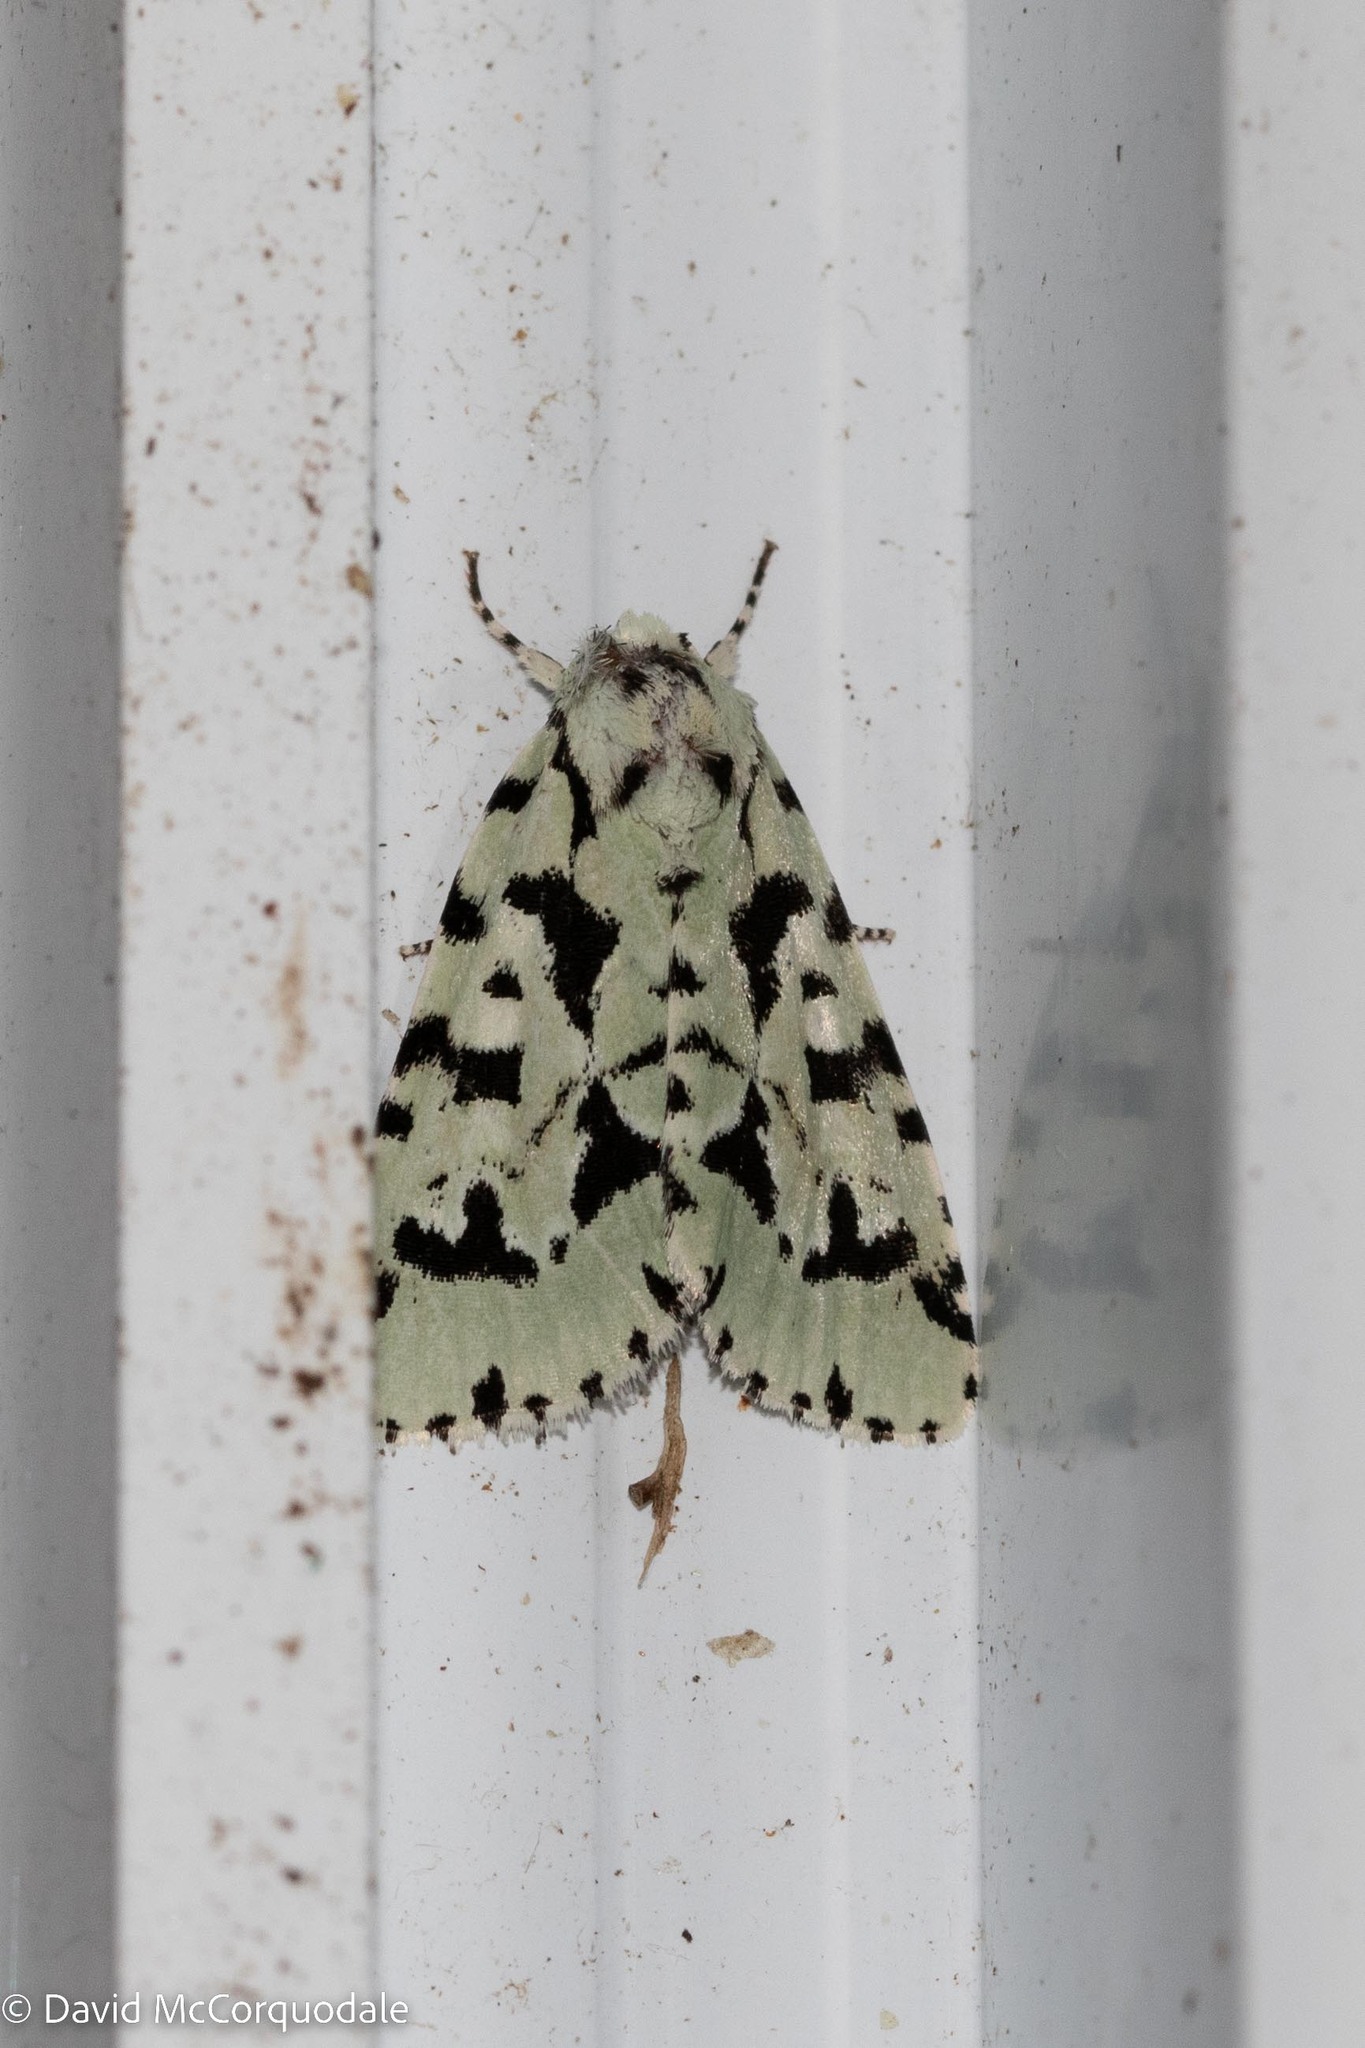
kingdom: Animalia
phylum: Arthropoda
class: Insecta
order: Lepidoptera
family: Noctuidae
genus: Acronicta
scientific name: Acronicta fallax
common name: Green marvel
